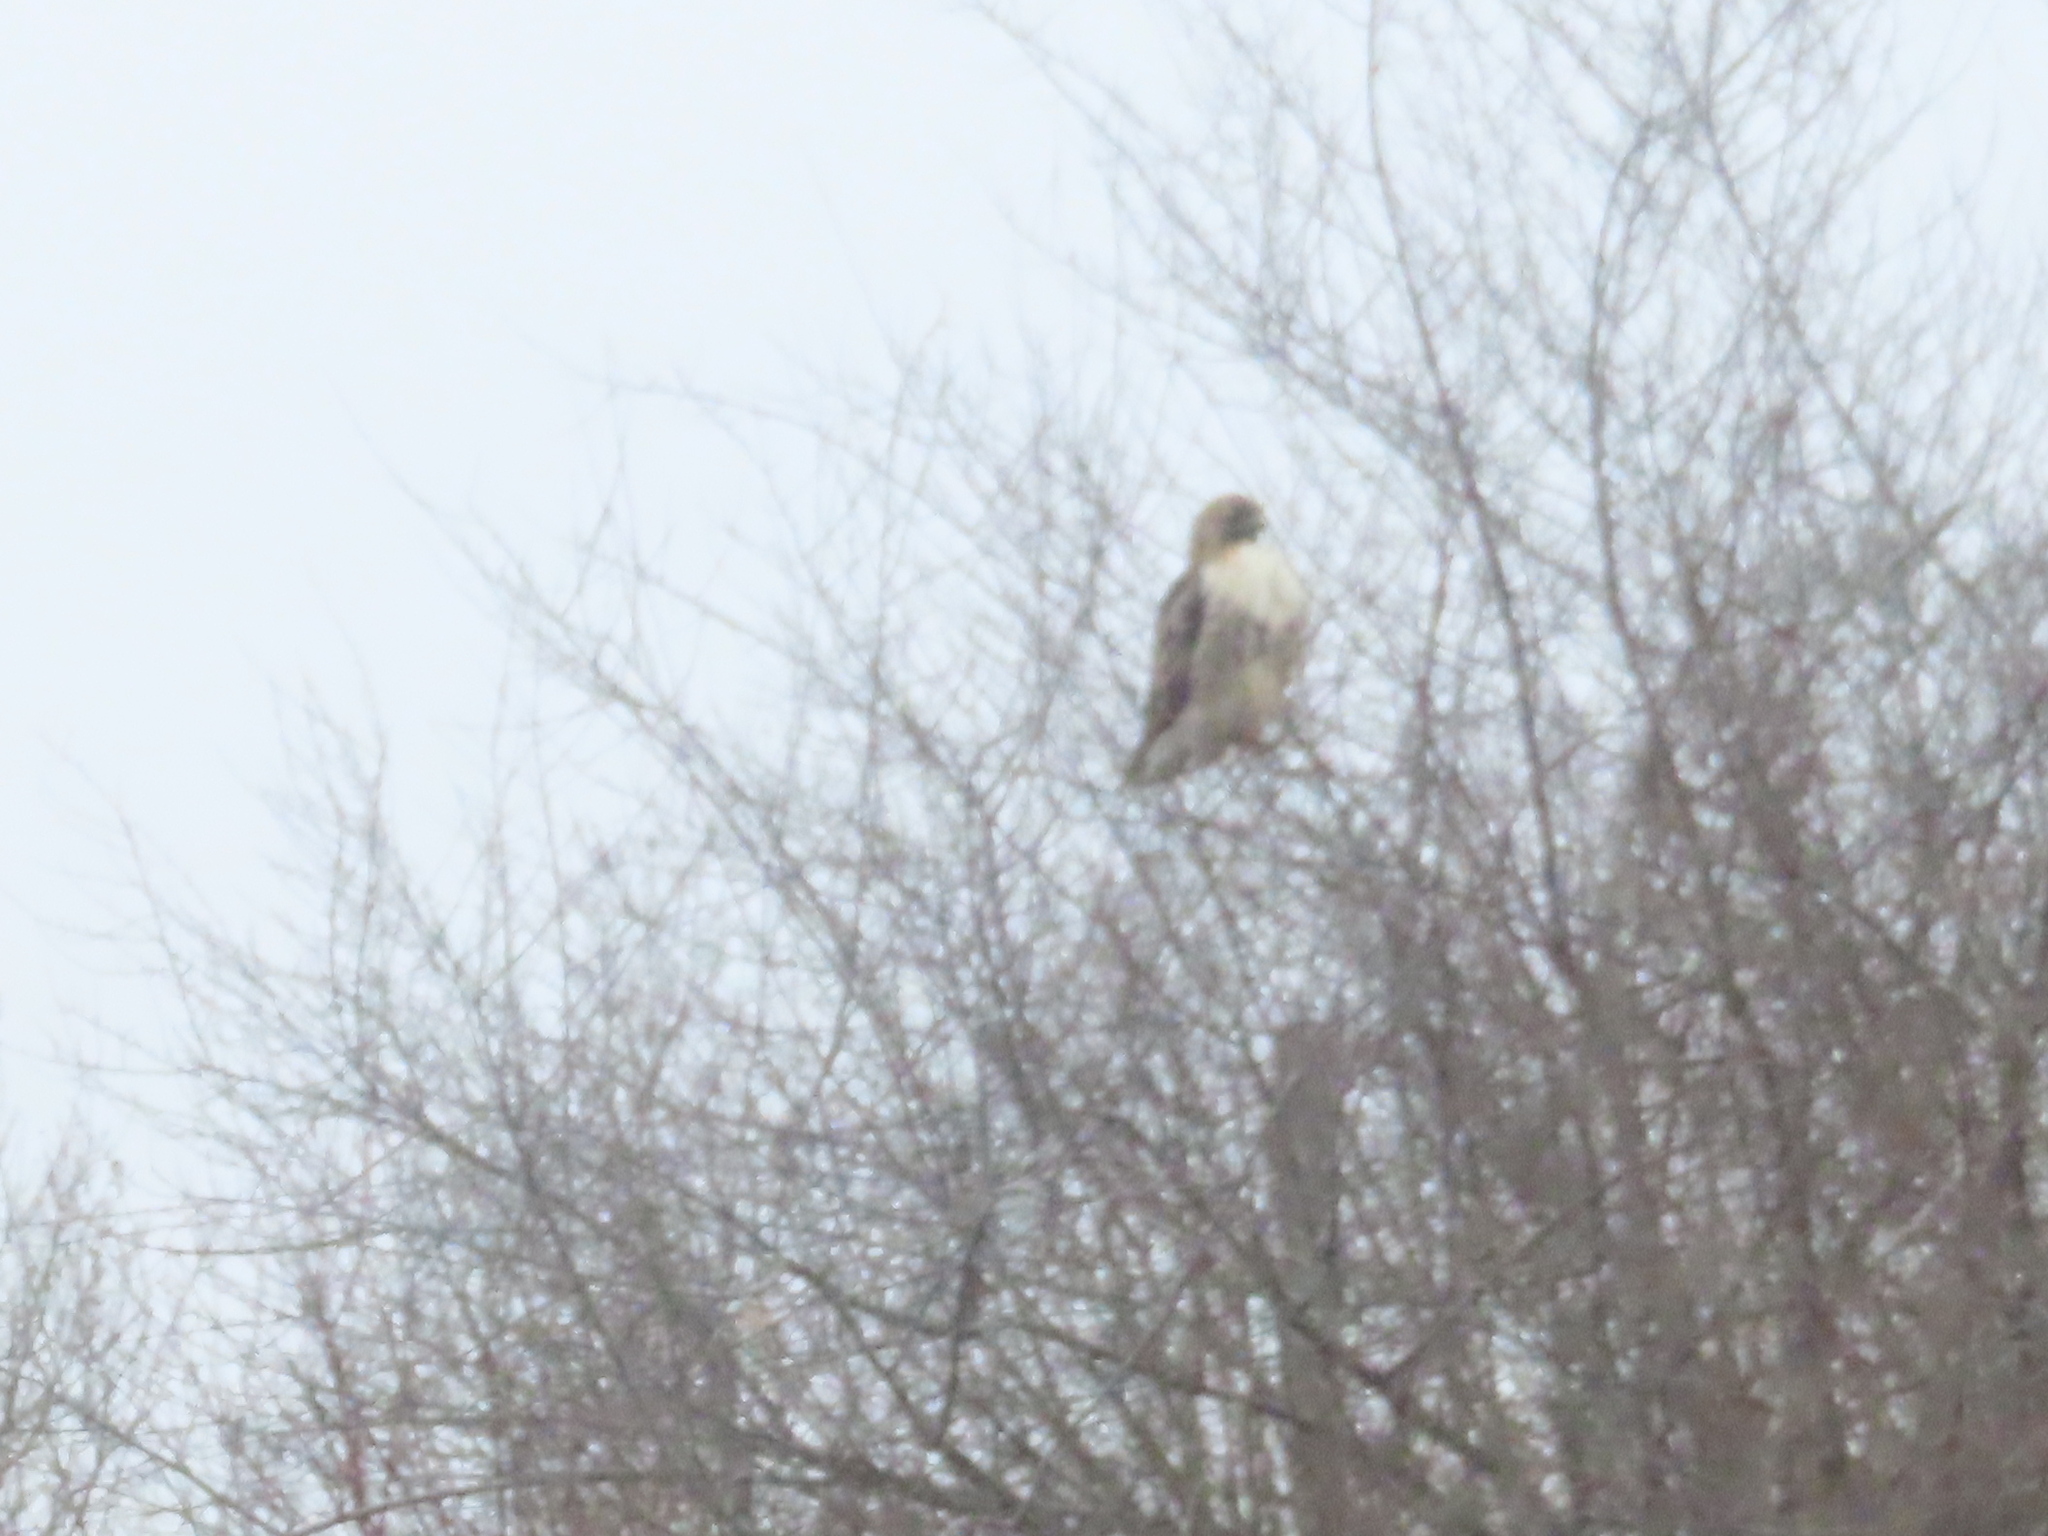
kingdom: Animalia
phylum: Chordata
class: Aves
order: Accipitriformes
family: Accipitridae
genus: Buteo
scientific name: Buteo jamaicensis
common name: Red-tailed hawk
